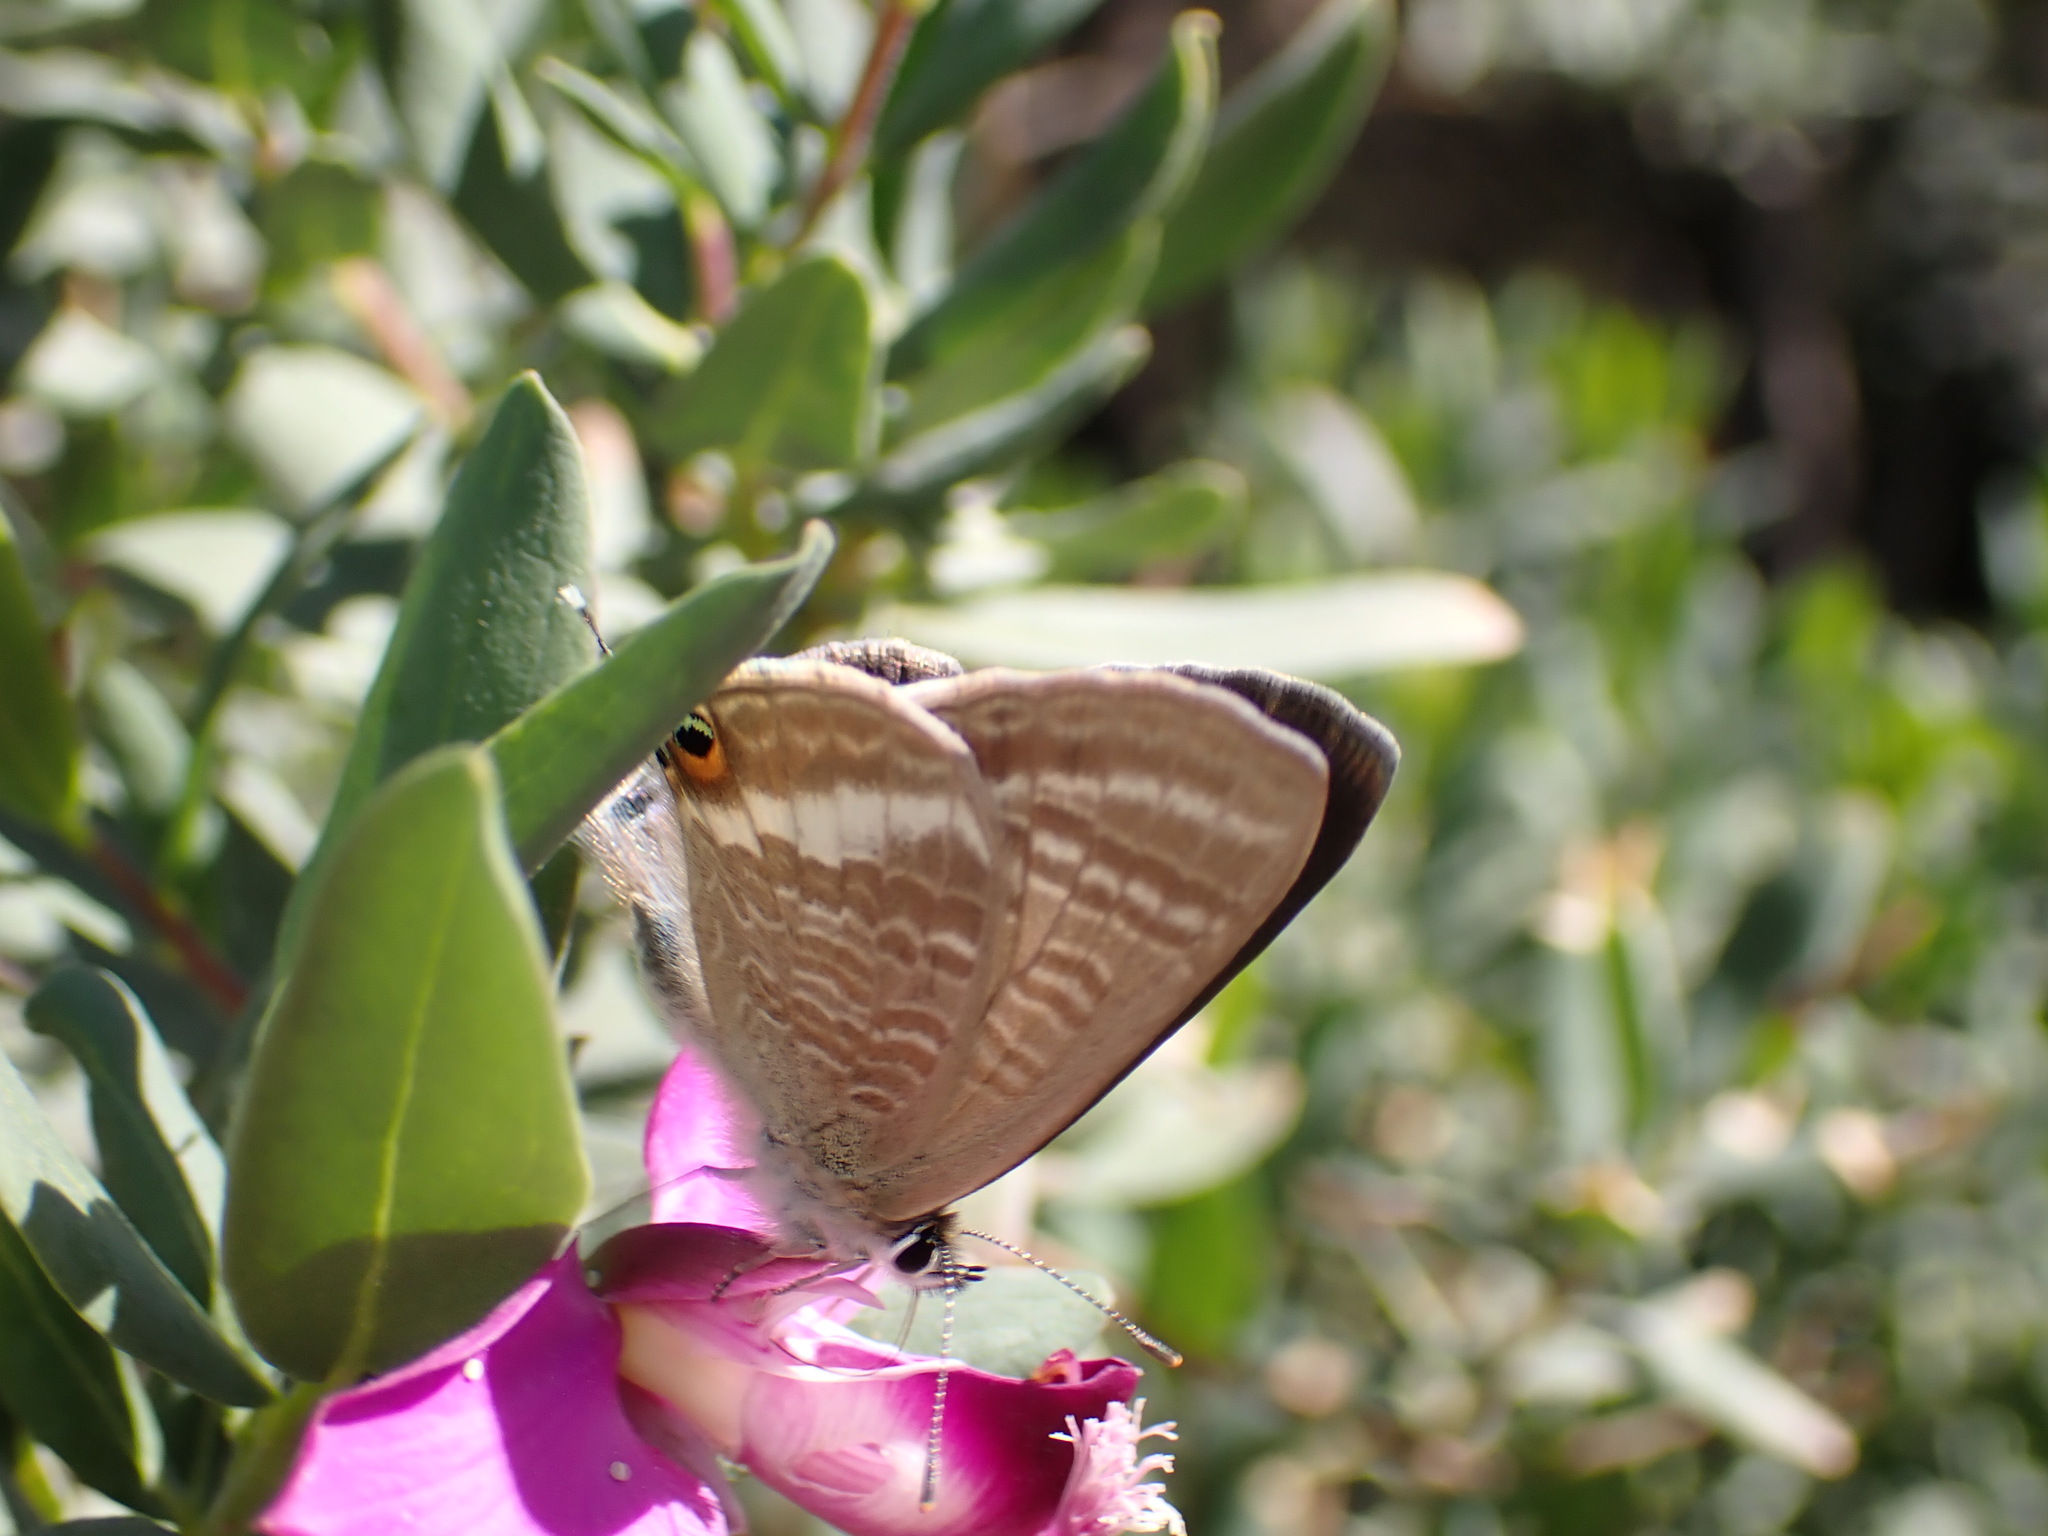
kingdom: Animalia
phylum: Arthropoda
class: Insecta
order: Lepidoptera
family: Lycaenidae
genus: Lampides
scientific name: Lampides boeticus
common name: Long-tailed blue
